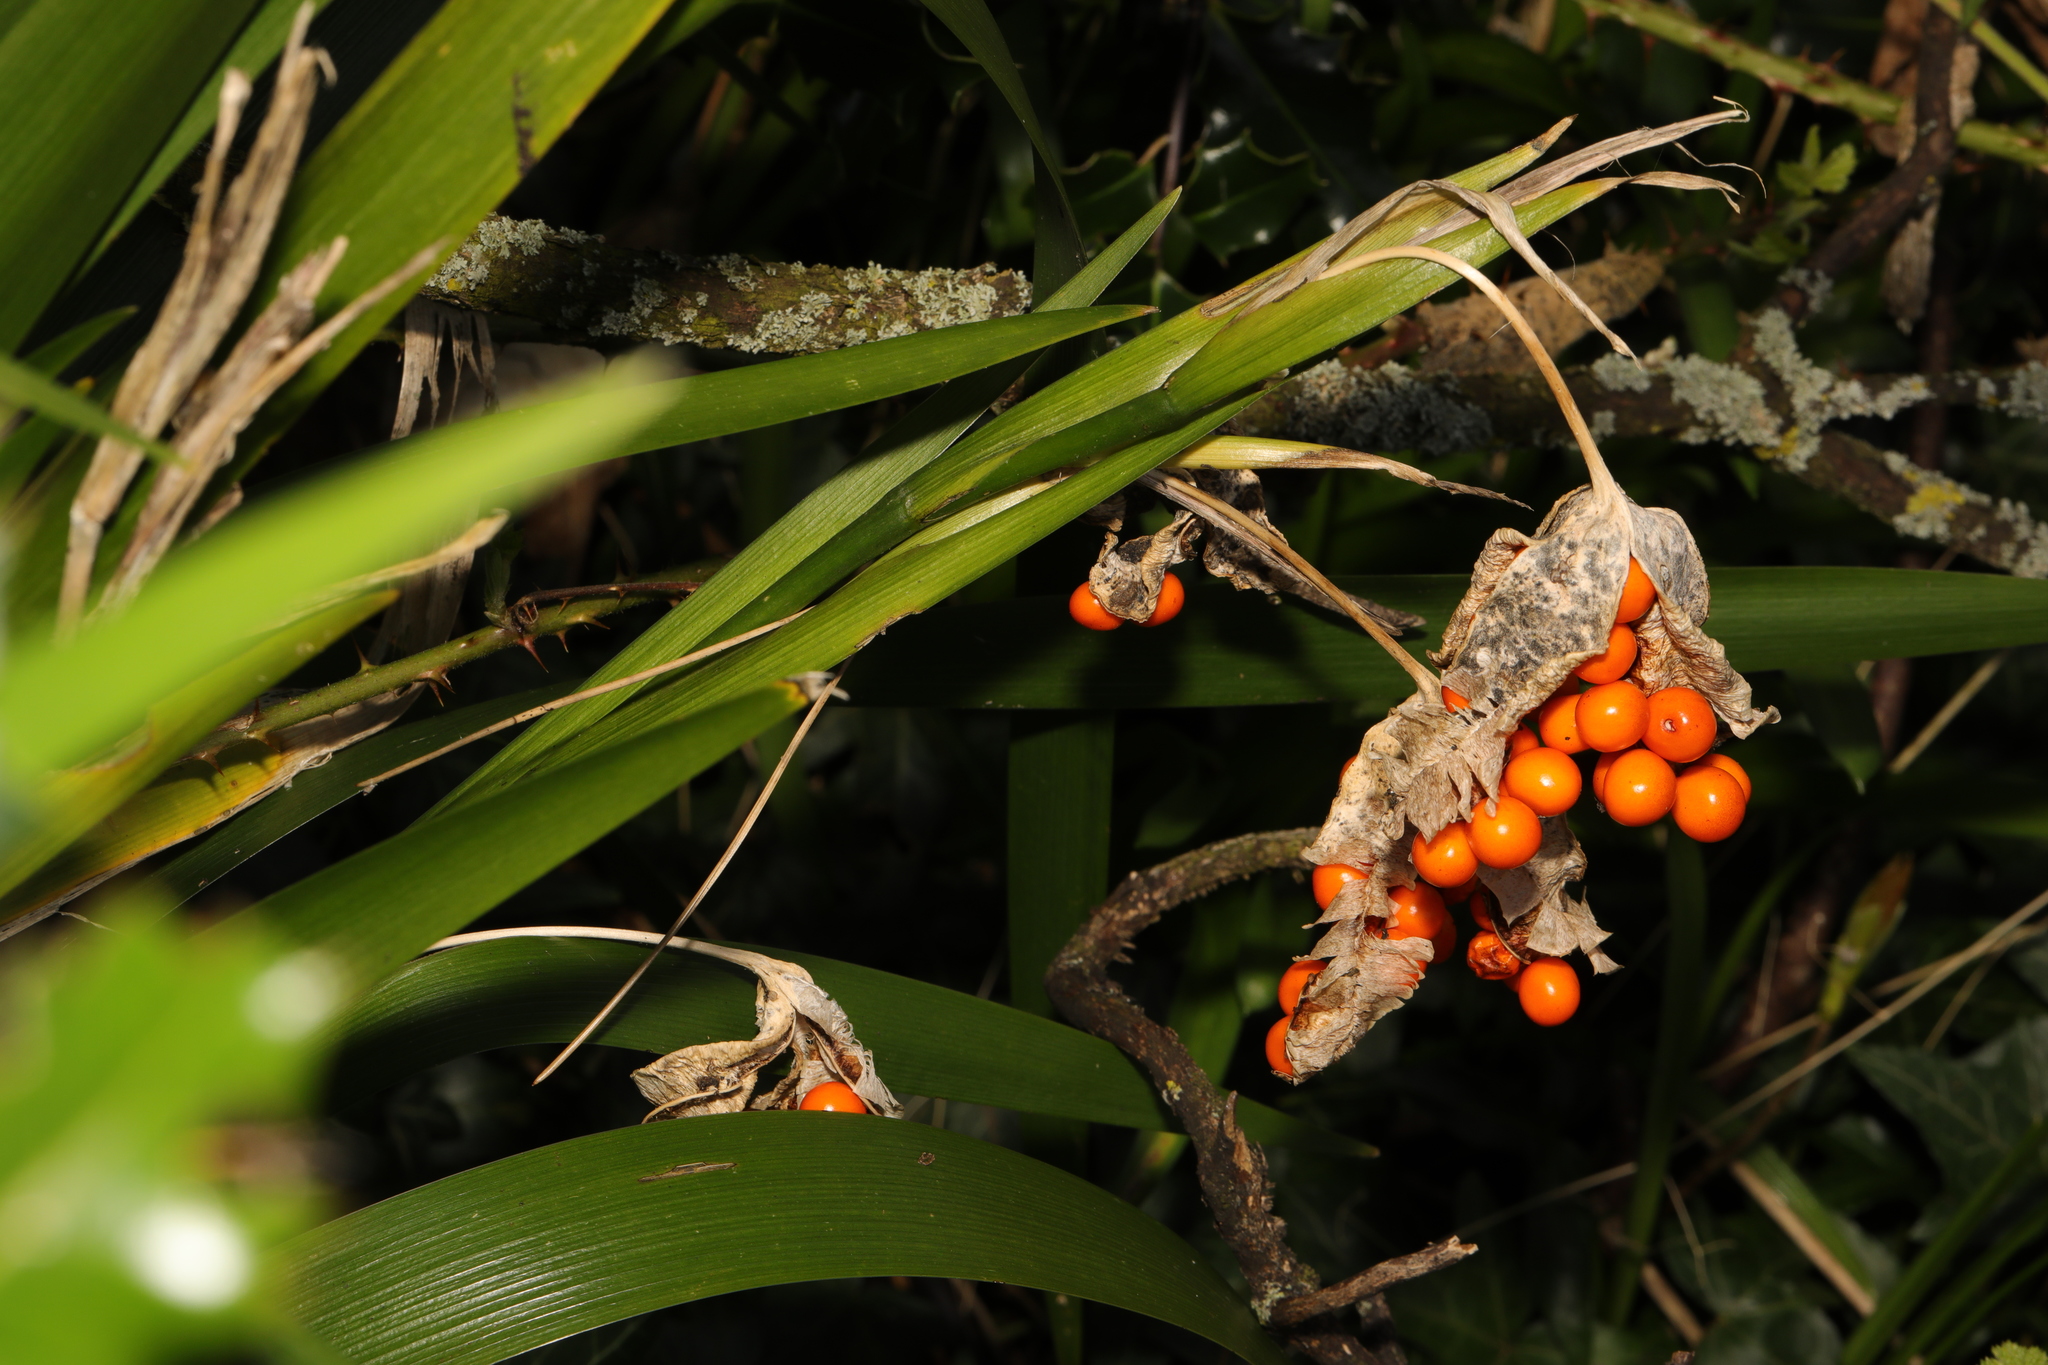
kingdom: Plantae
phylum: Tracheophyta
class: Liliopsida
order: Asparagales
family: Iridaceae
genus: Iris
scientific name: Iris foetidissima
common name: Stinking iris
